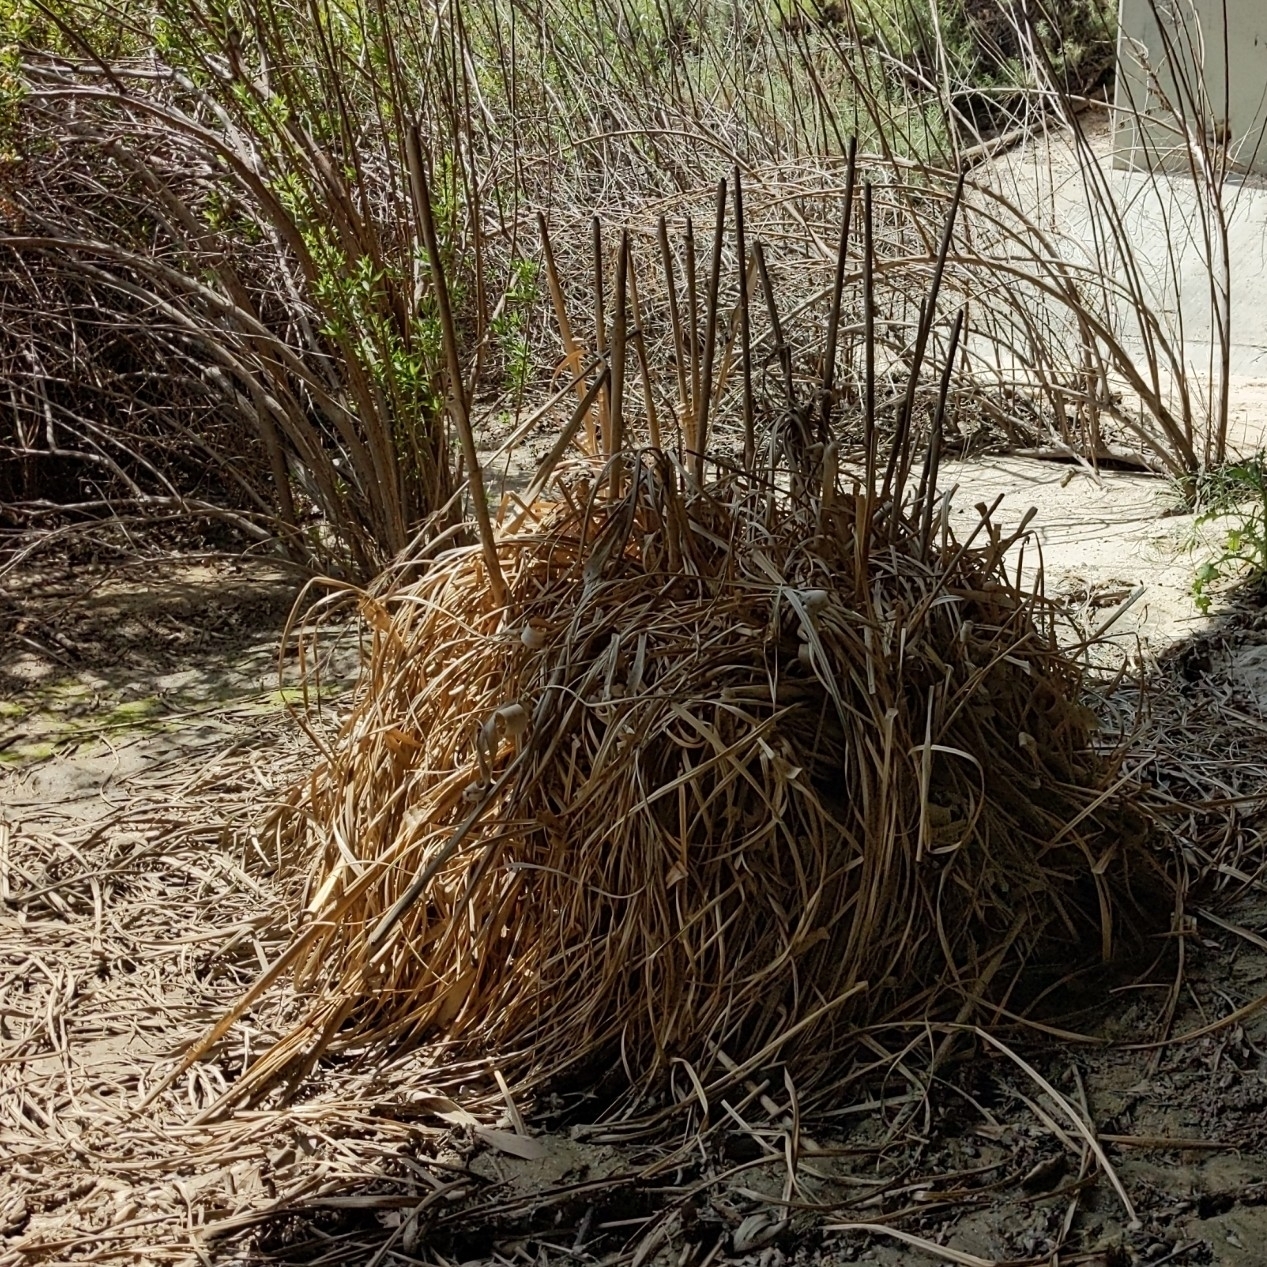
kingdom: Plantae
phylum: Tracheophyta
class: Liliopsida
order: Poales
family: Poaceae
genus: Cortaderia
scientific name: Cortaderia selloana
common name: Uruguayan pampas grass
